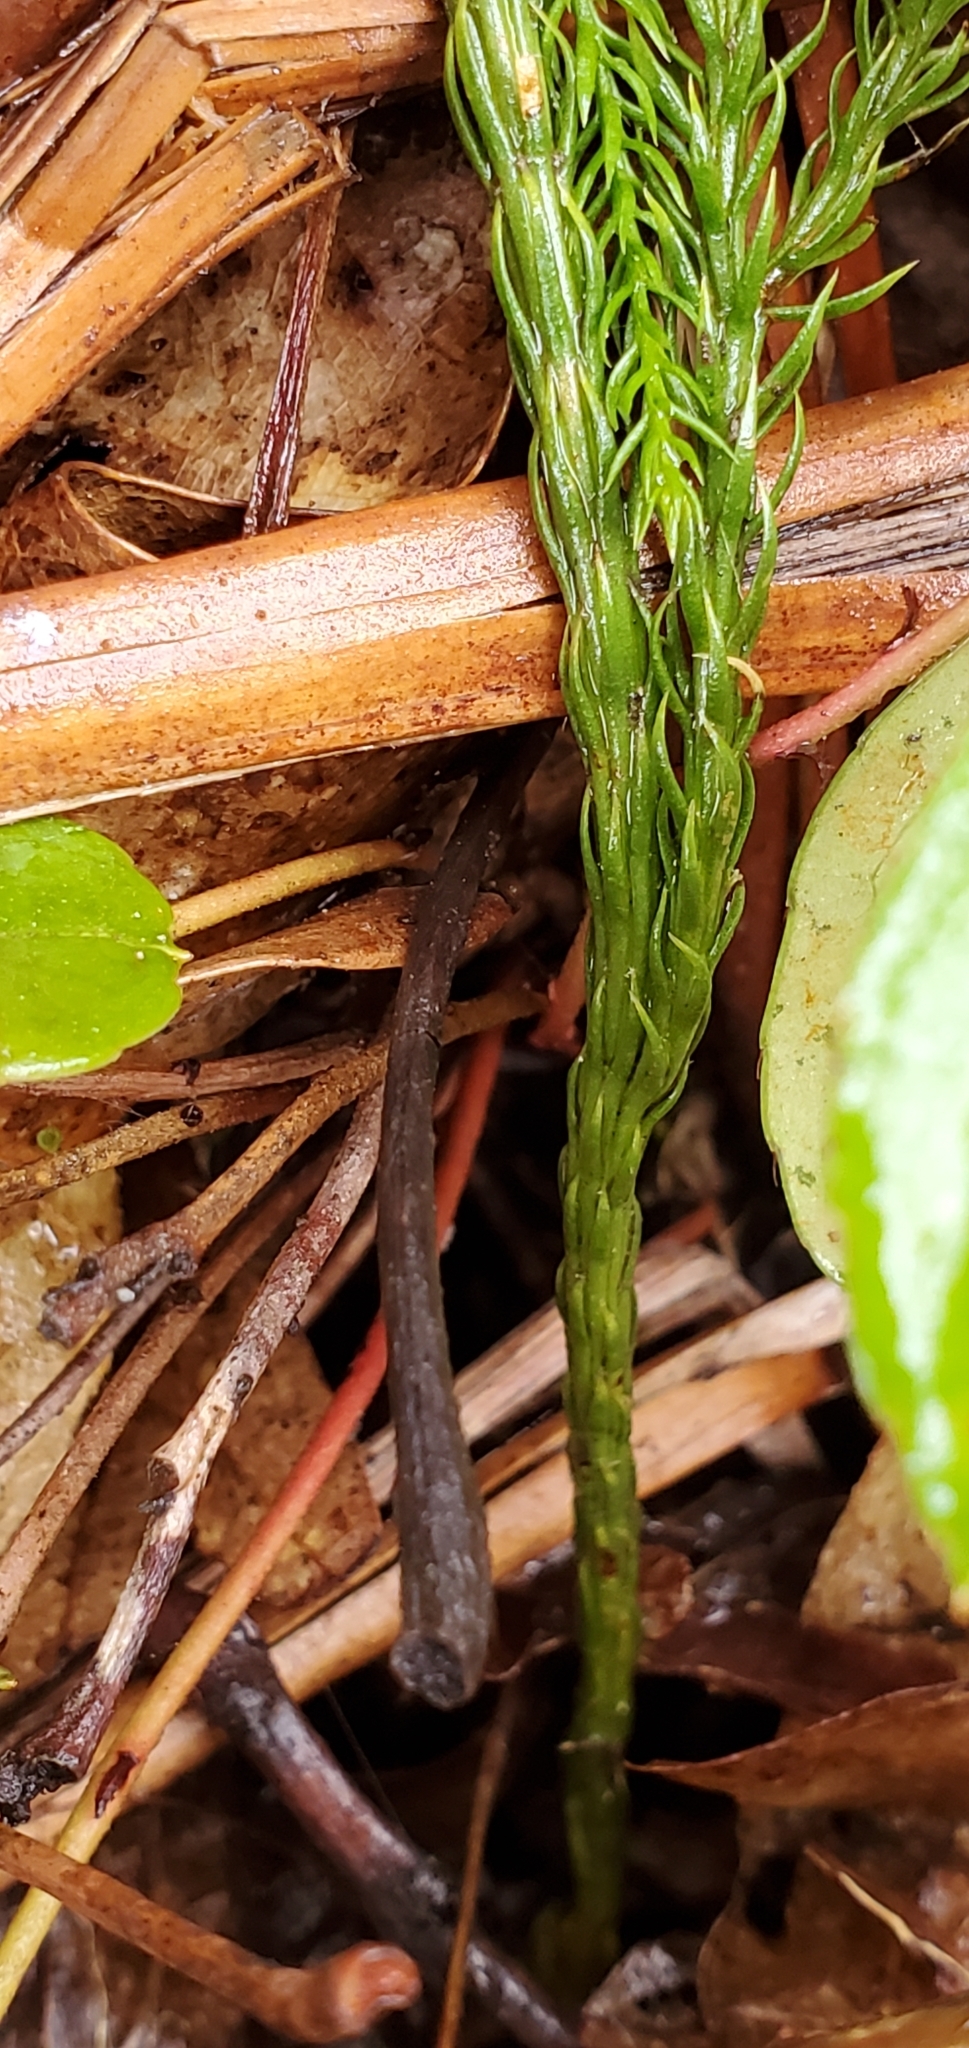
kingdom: Plantae
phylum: Tracheophyta
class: Lycopodiopsida
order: Lycopodiales
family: Lycopodiaceae
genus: Dendrolycopodium
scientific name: Dendrolycopodium hickeyi
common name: Hickey's clubmoss
